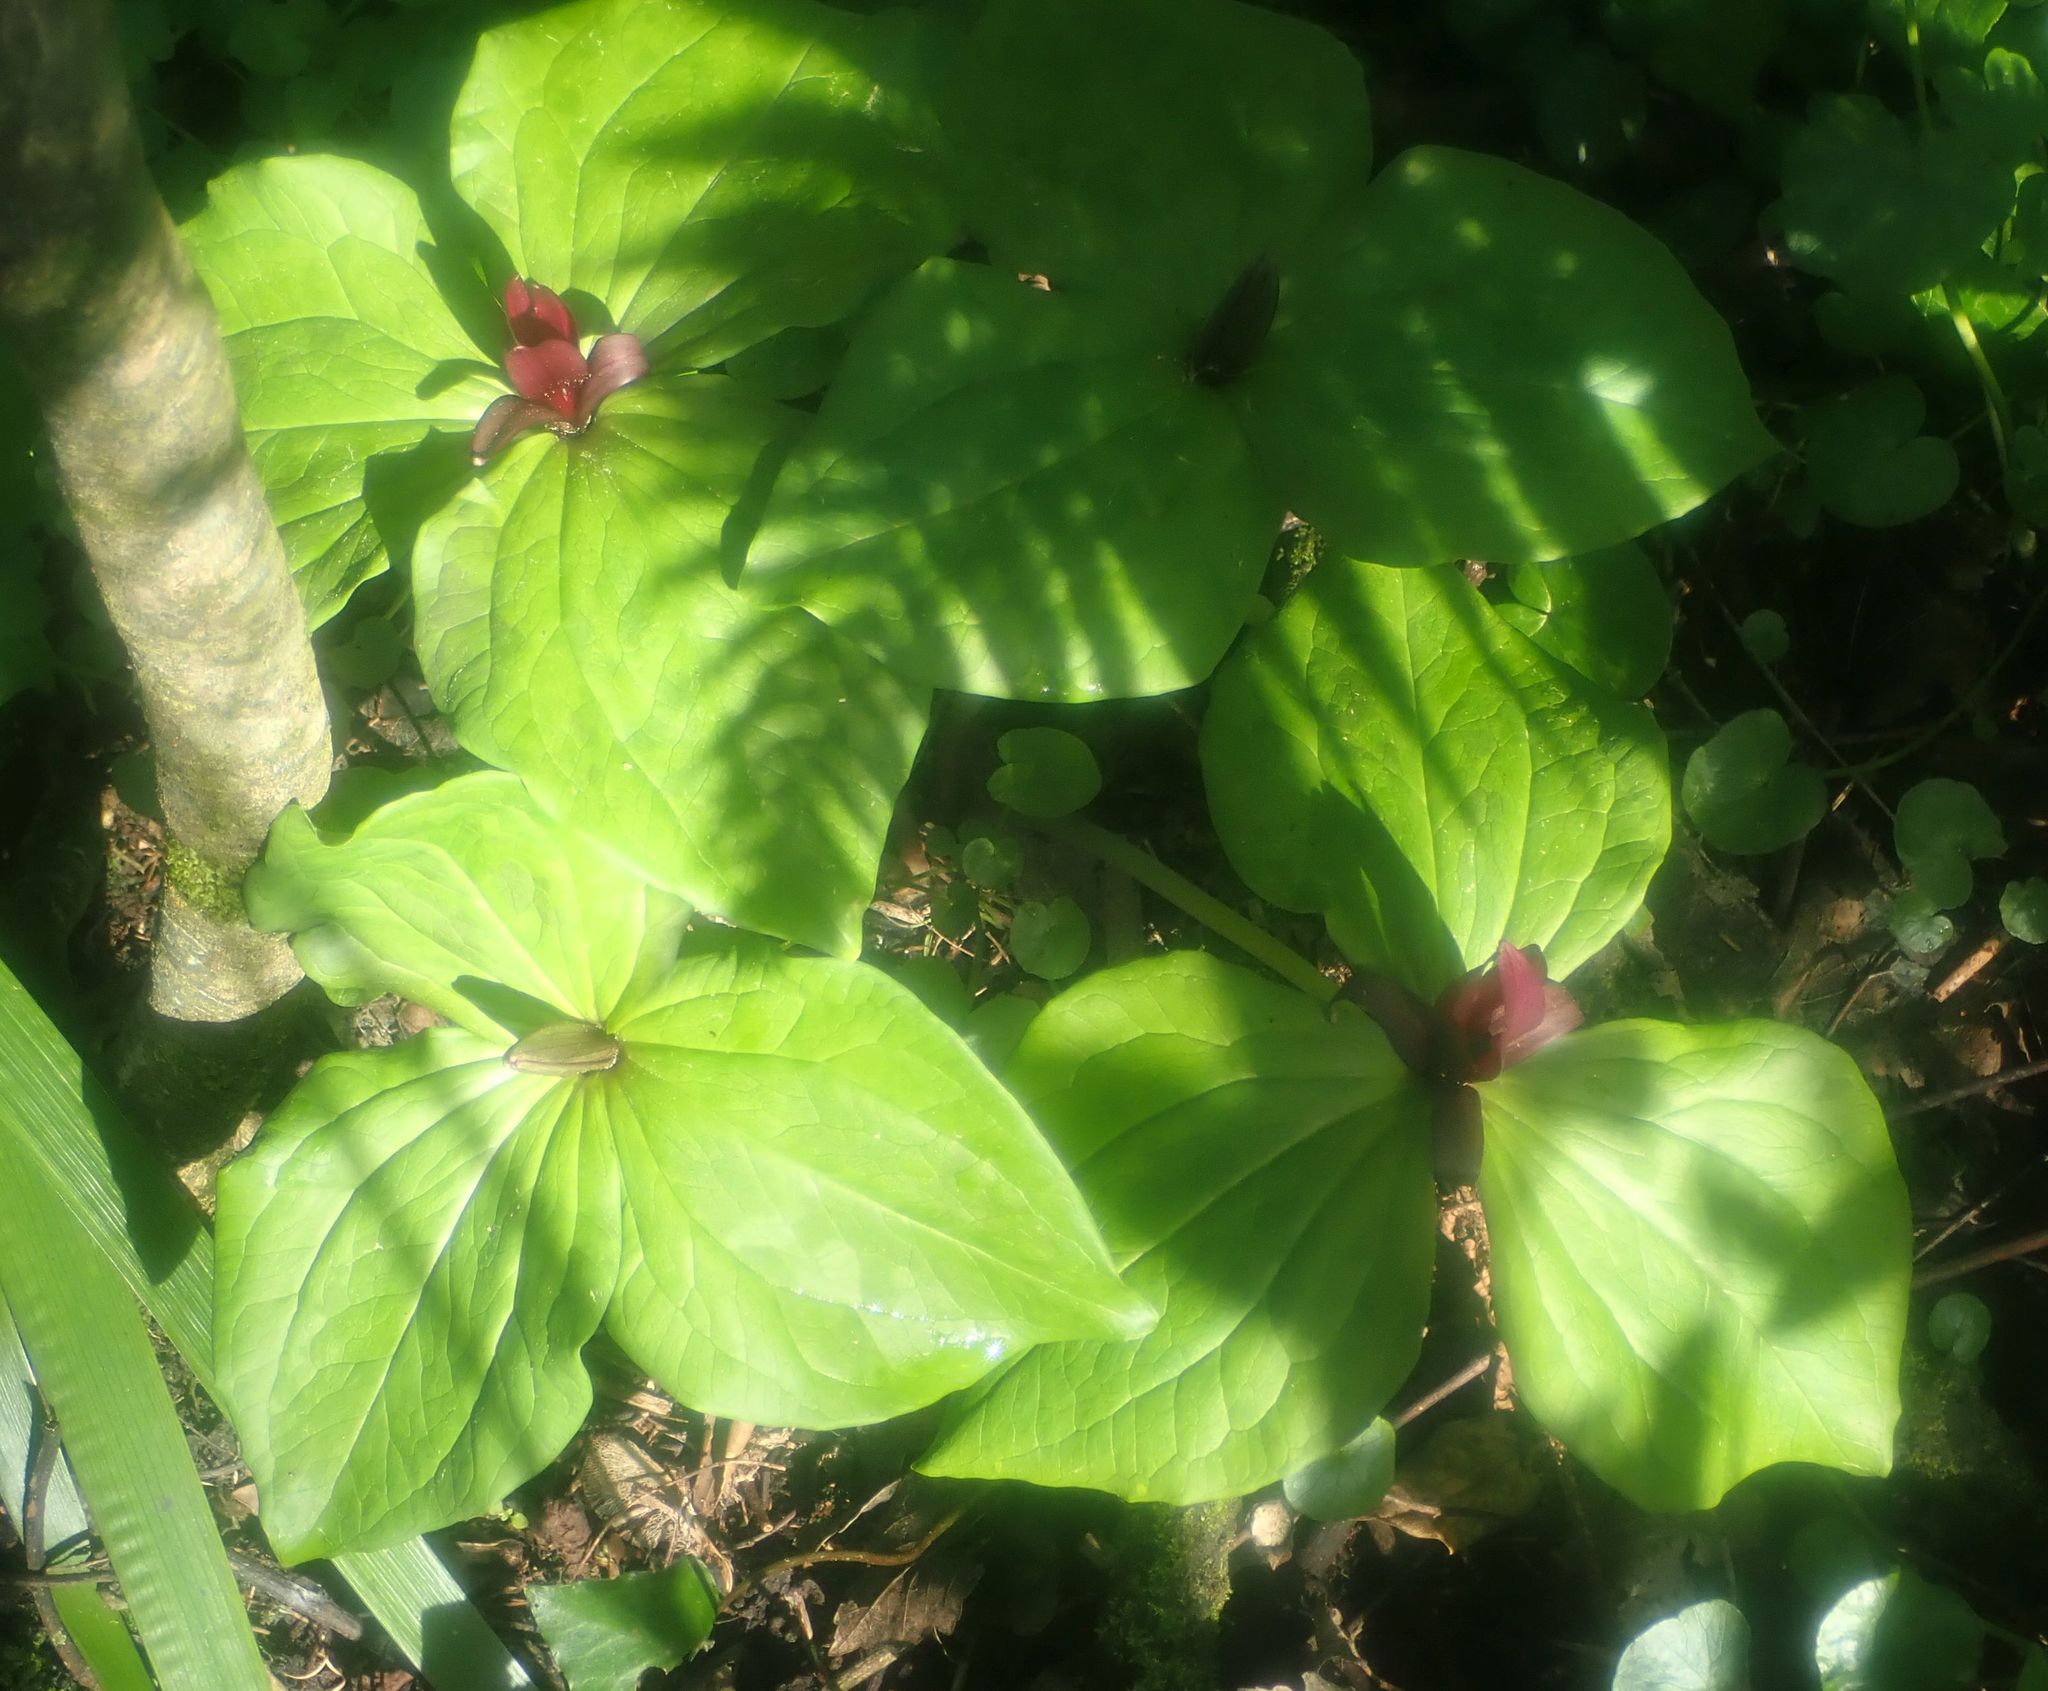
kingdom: Plantae
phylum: Tracheophyta
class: Liliopsida
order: Liliales
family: Melanthiaceae
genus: Trillium
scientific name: Trillium chloropetalum
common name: Giant trillium
